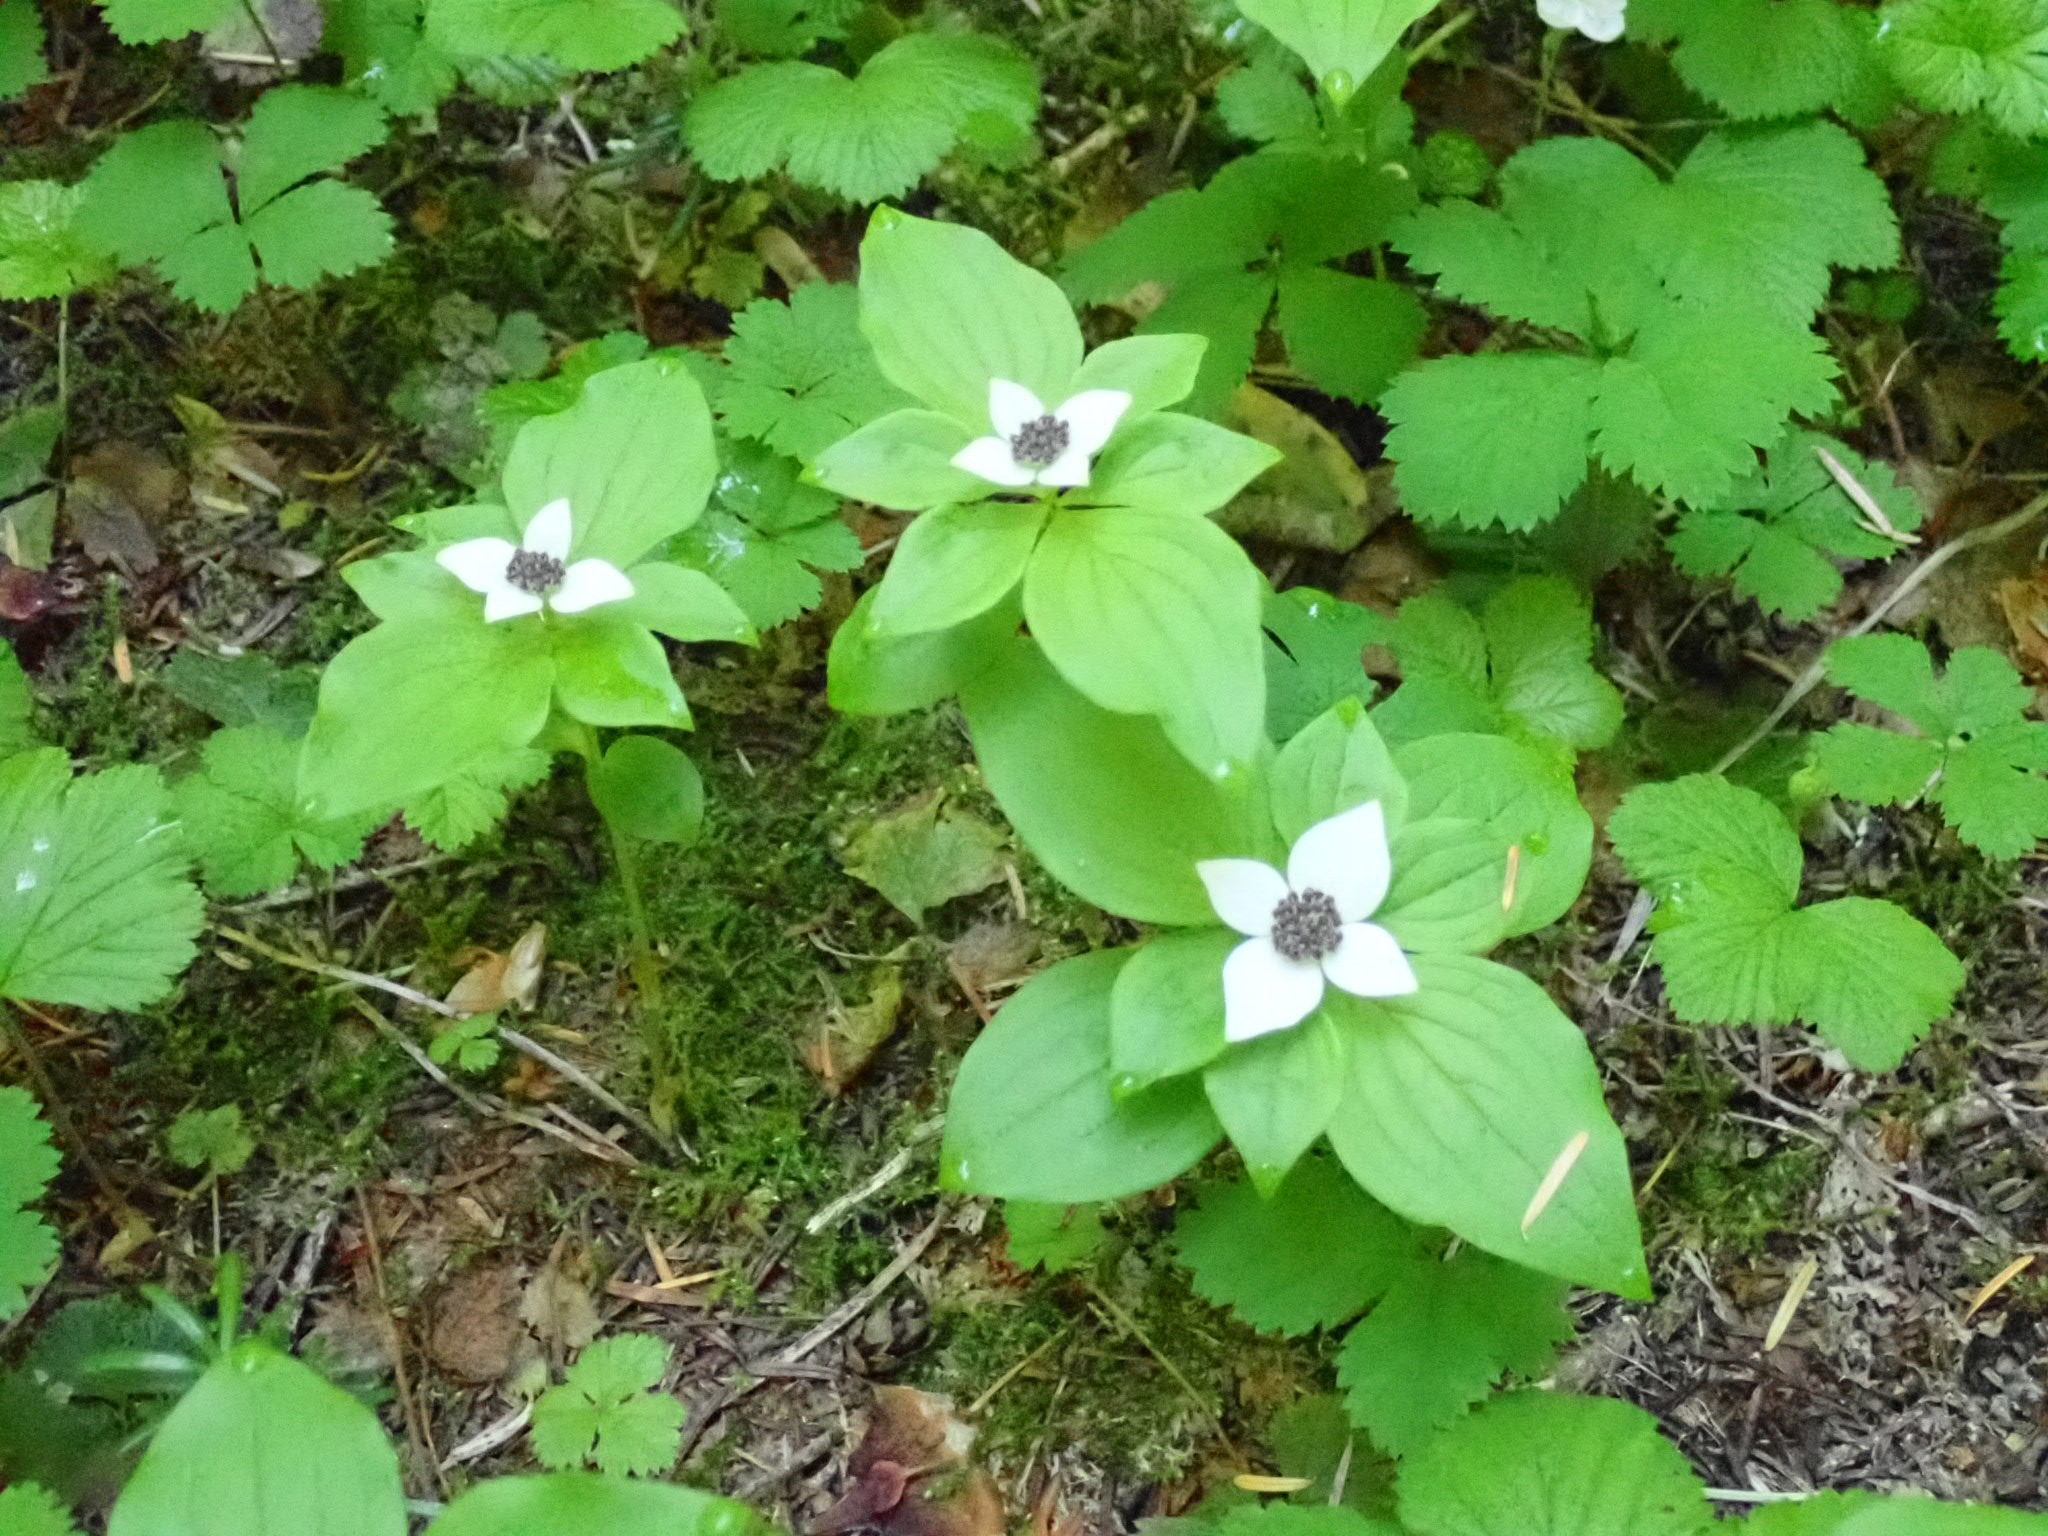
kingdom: Plantae
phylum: Tracheophyta
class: Magnoliopsida
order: Cornales
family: Cornaceae
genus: Cornus
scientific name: Cornus unalaschkensis
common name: Alaska bunchberry
